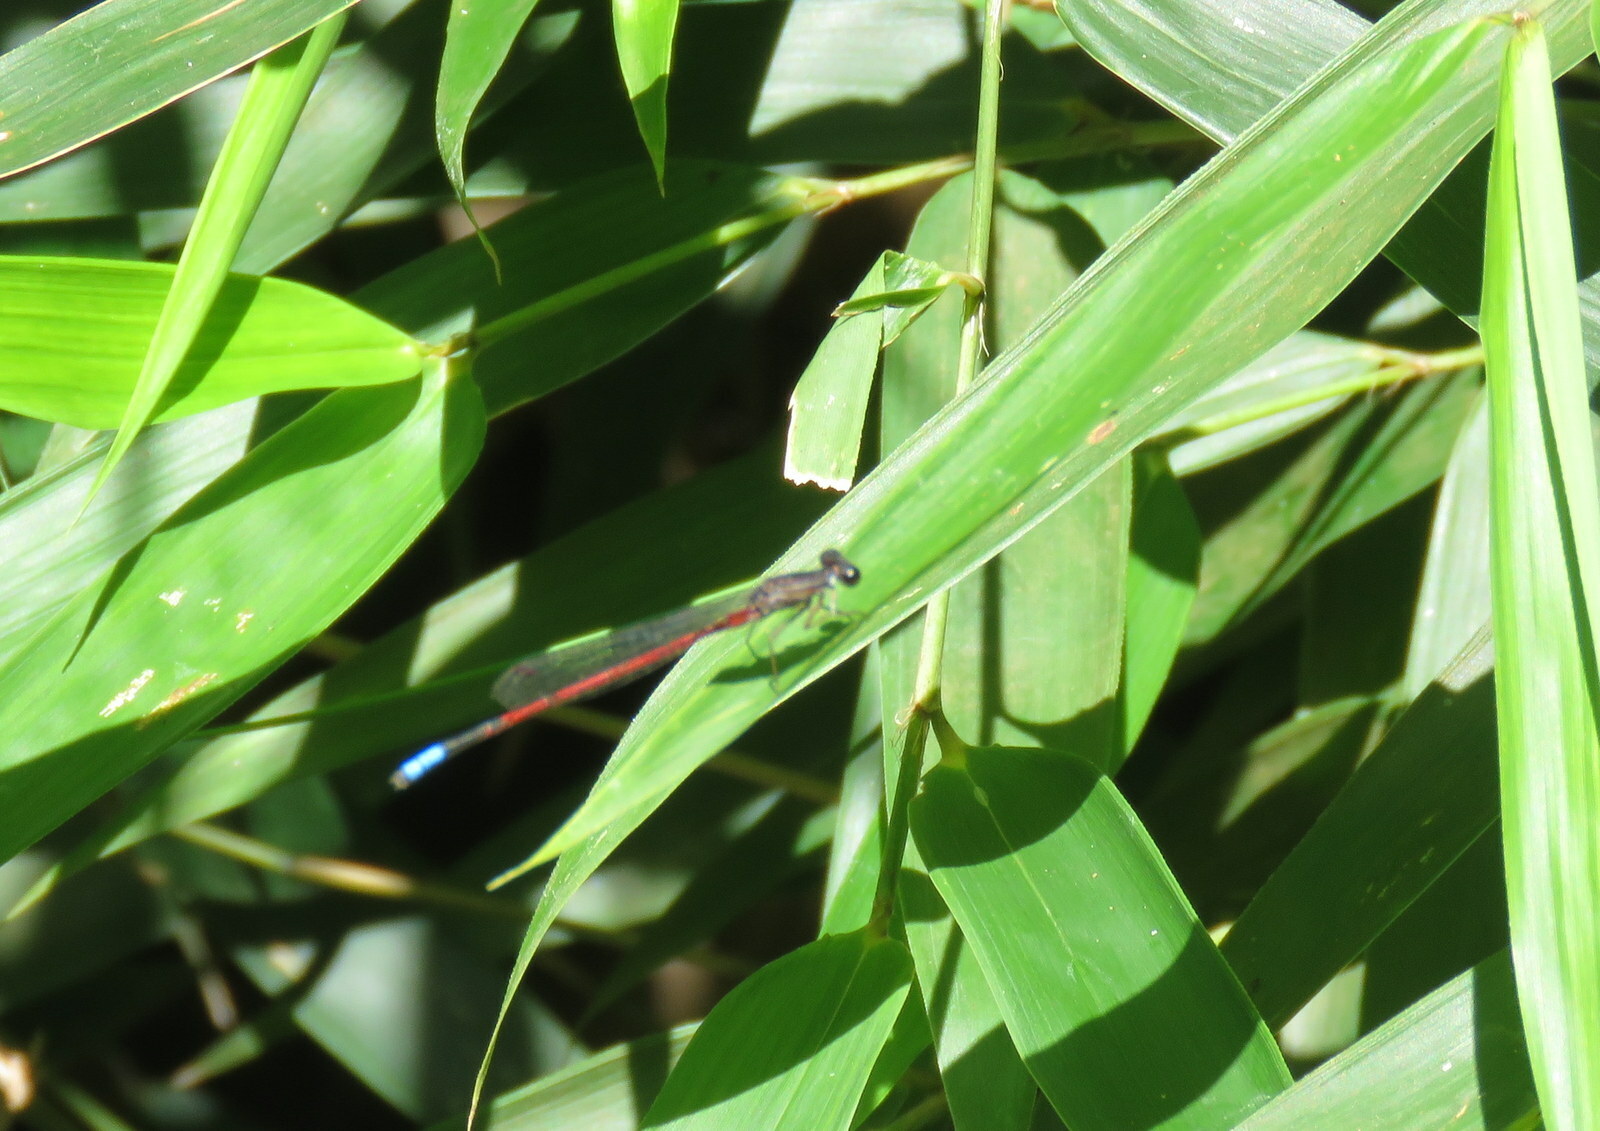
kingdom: Animalia
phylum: Arthropoda
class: Insecta
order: Odonata
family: Coenagrionidae
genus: Oxyagrion
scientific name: Oxyagrion hempeli
